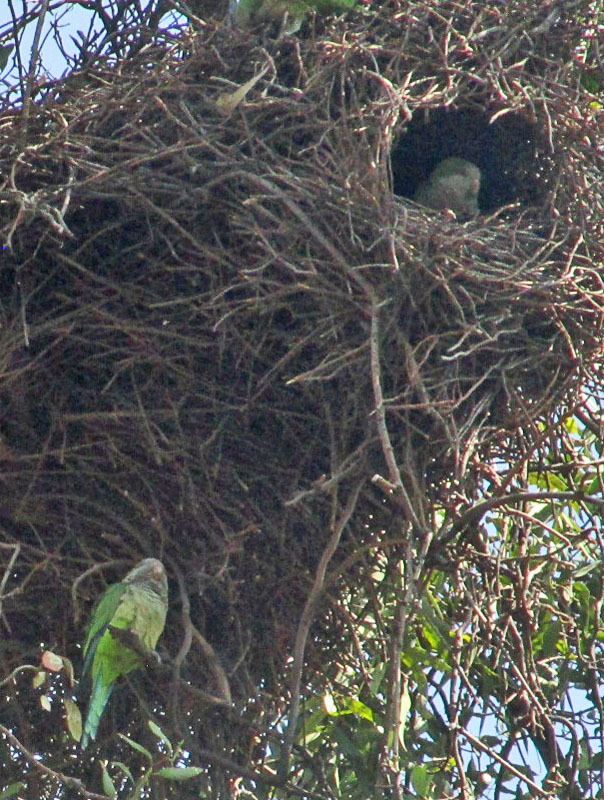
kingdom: Animalia
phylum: Chordata
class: Aves
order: Psittaciformes
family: Psittacidae
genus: Myiopsitta
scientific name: Myiopsitta monachus
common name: Monk parakeet
